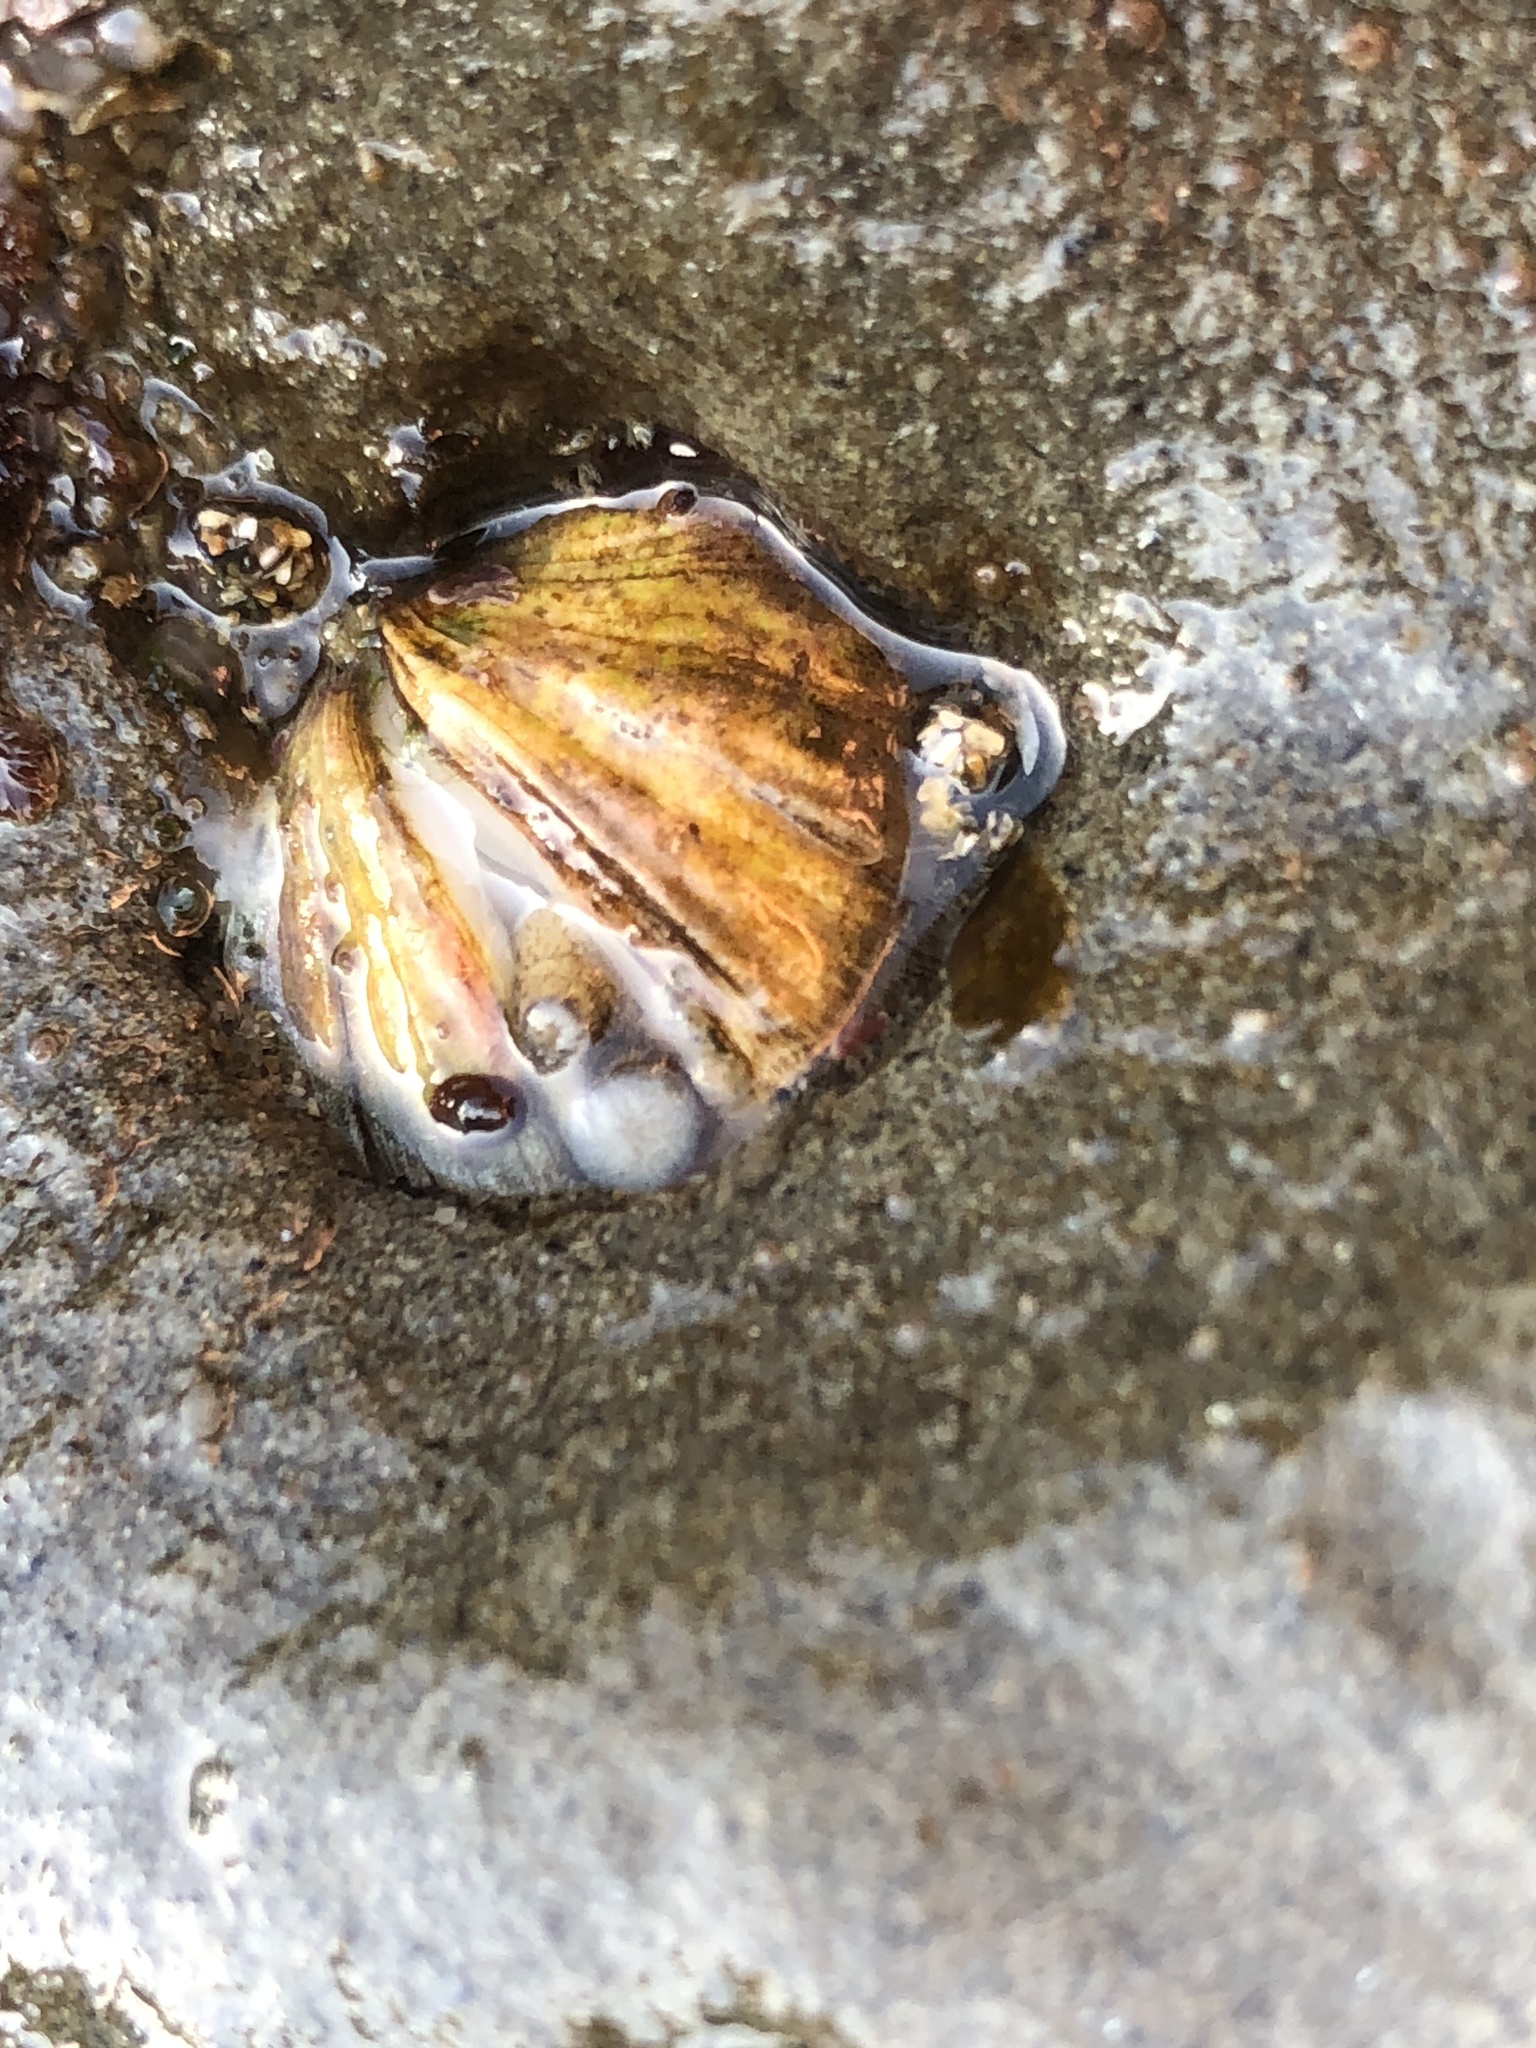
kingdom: Animalia
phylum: Mollusca
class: Bivalvia
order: Venerida
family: Veneridae
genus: Petricola
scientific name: Petricola carditoides
